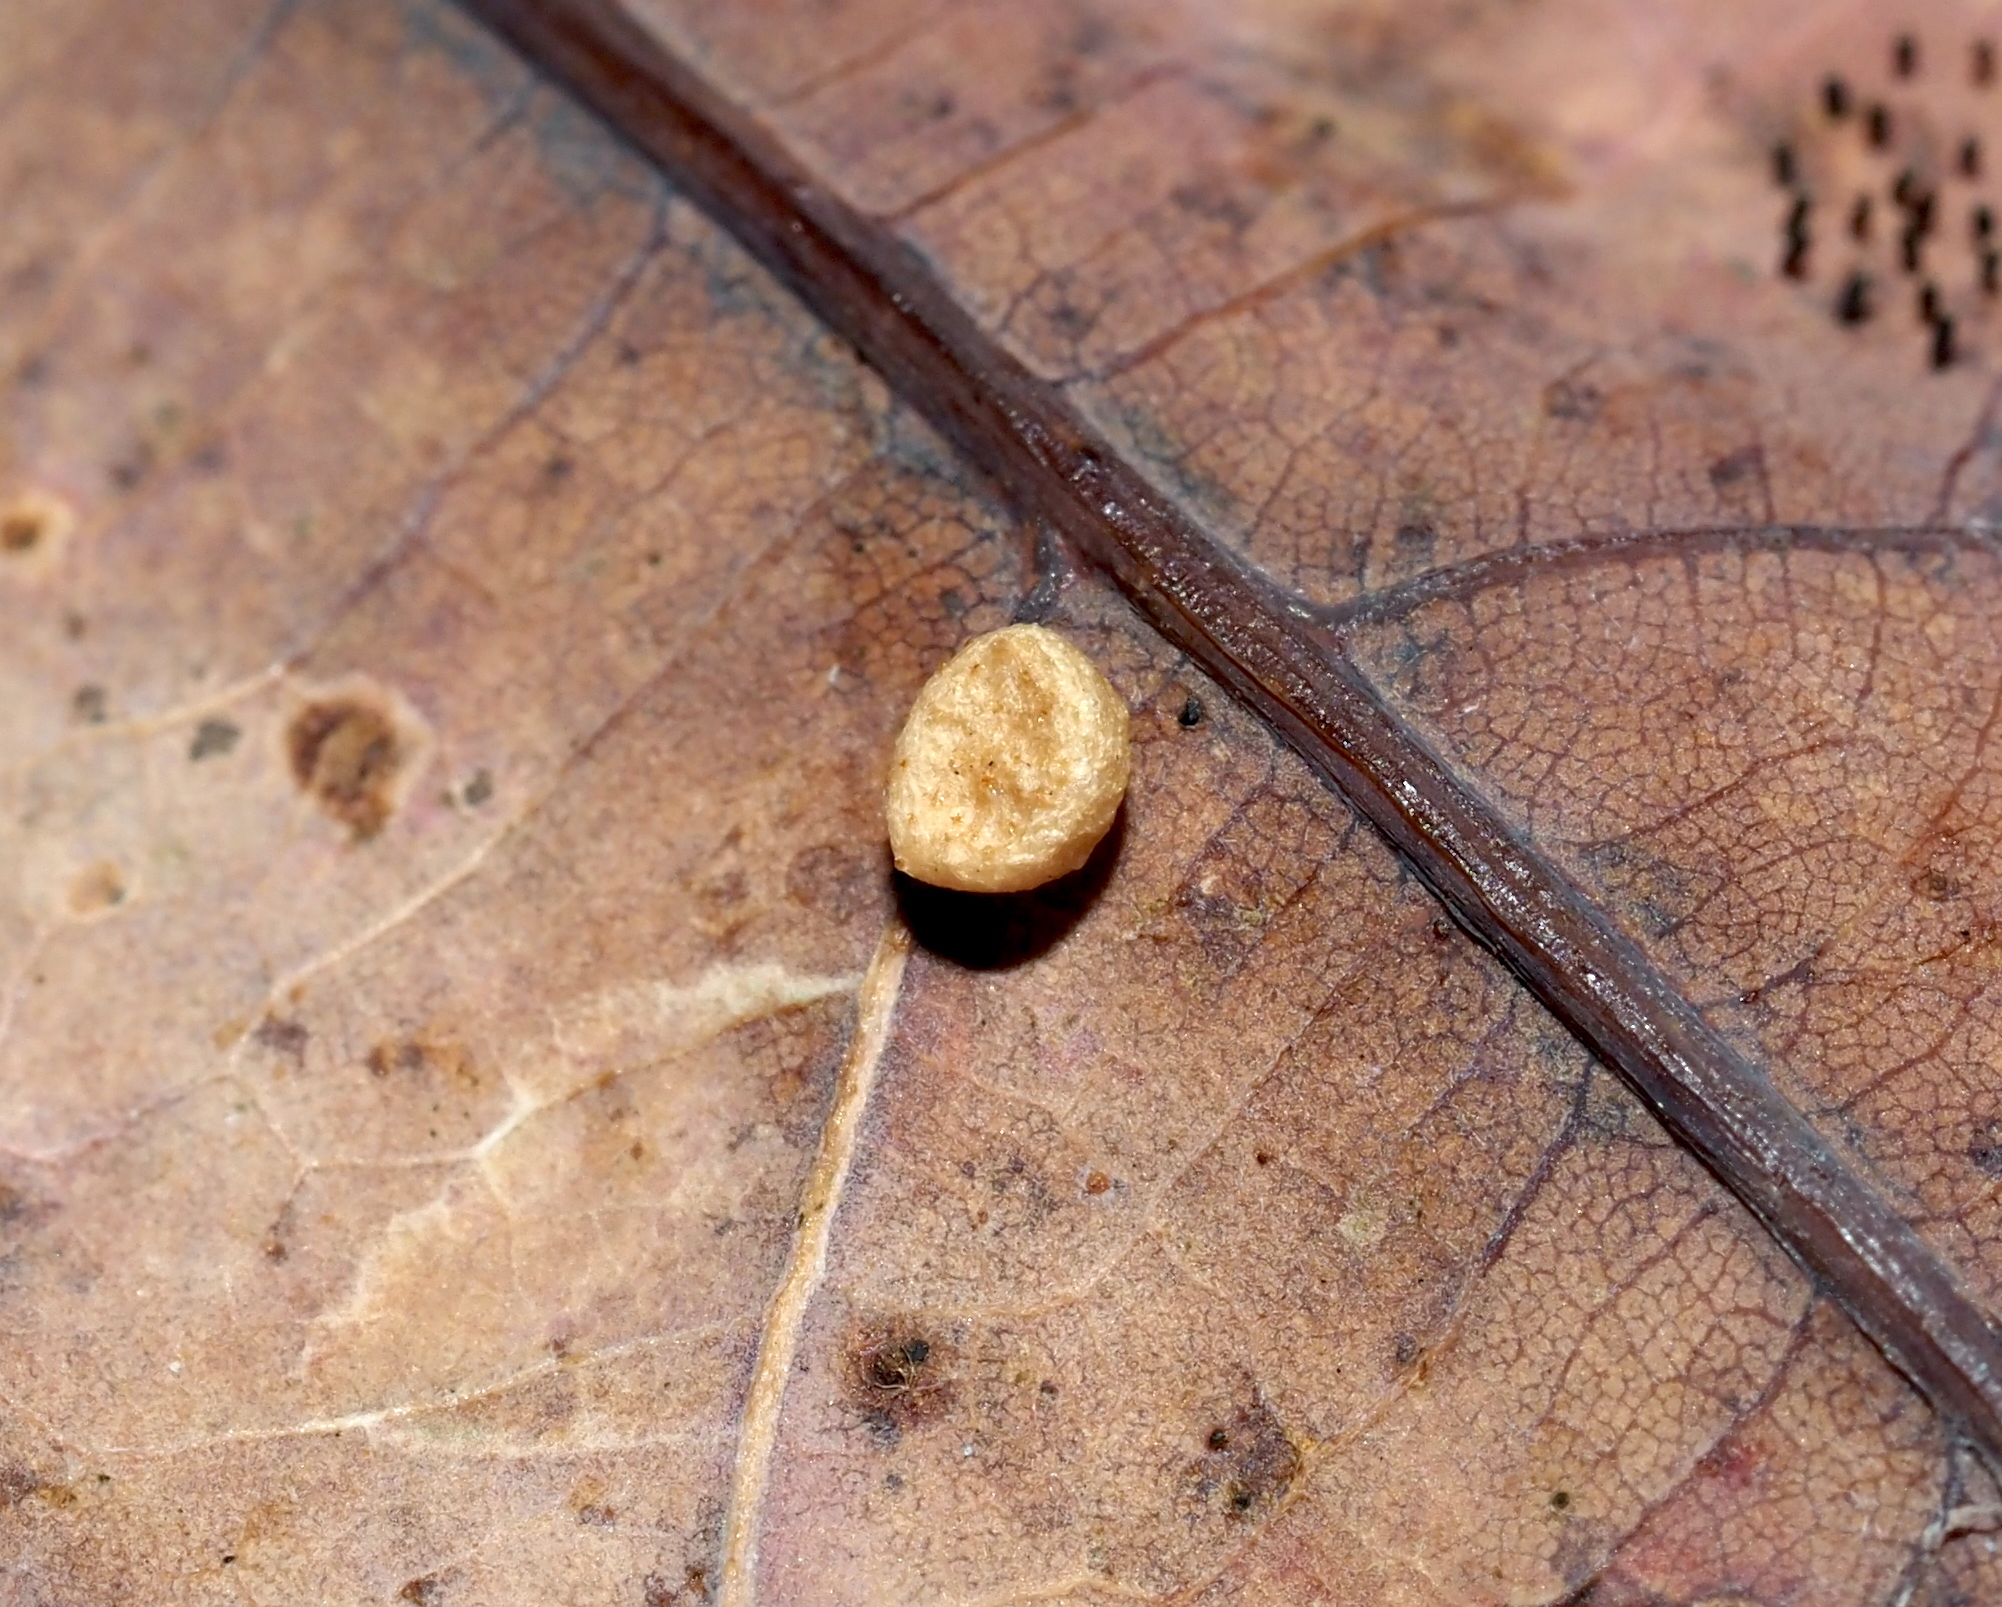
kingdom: Animalia
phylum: Arthropoda
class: Insecta
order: Hymenoptera
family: Cynipidae
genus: Phylloteras
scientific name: Phylloteras
